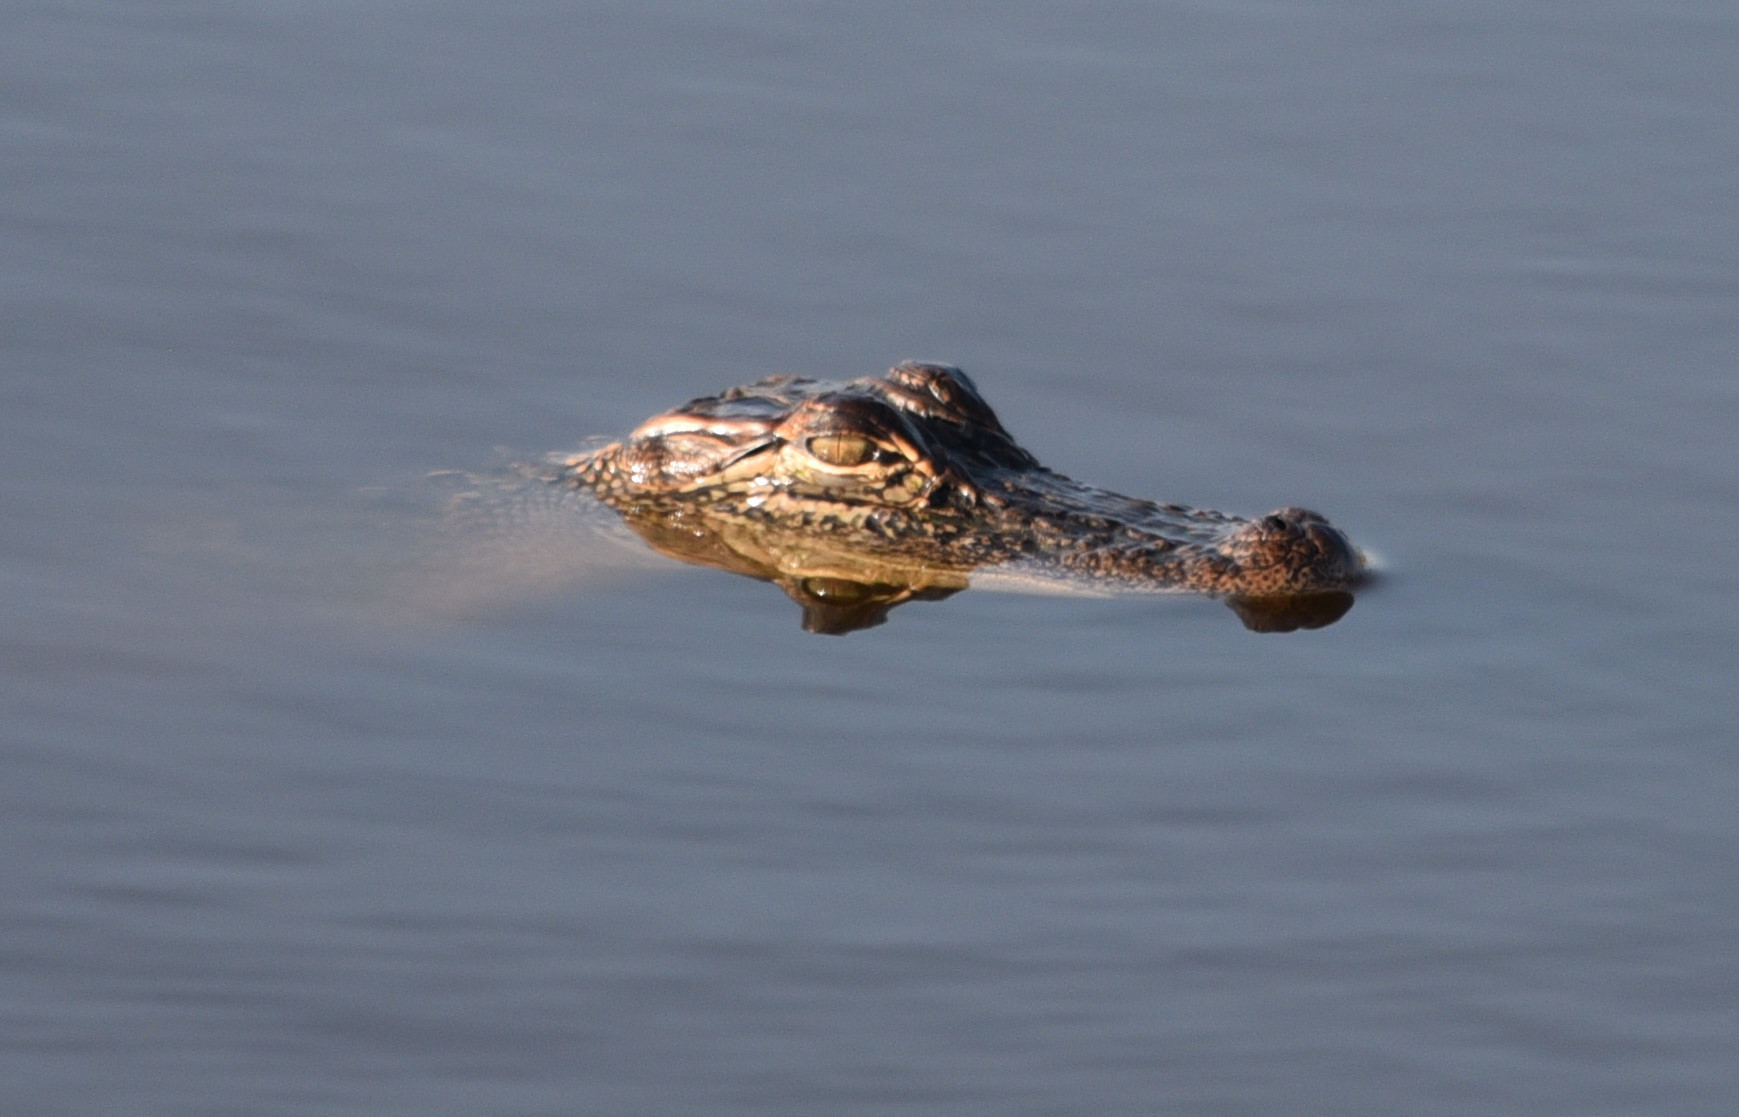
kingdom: Animalia
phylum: Chordata
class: Crocodylia
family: Alligatoridae
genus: Alligator
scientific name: Alligator mississippiensis
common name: American alligator
